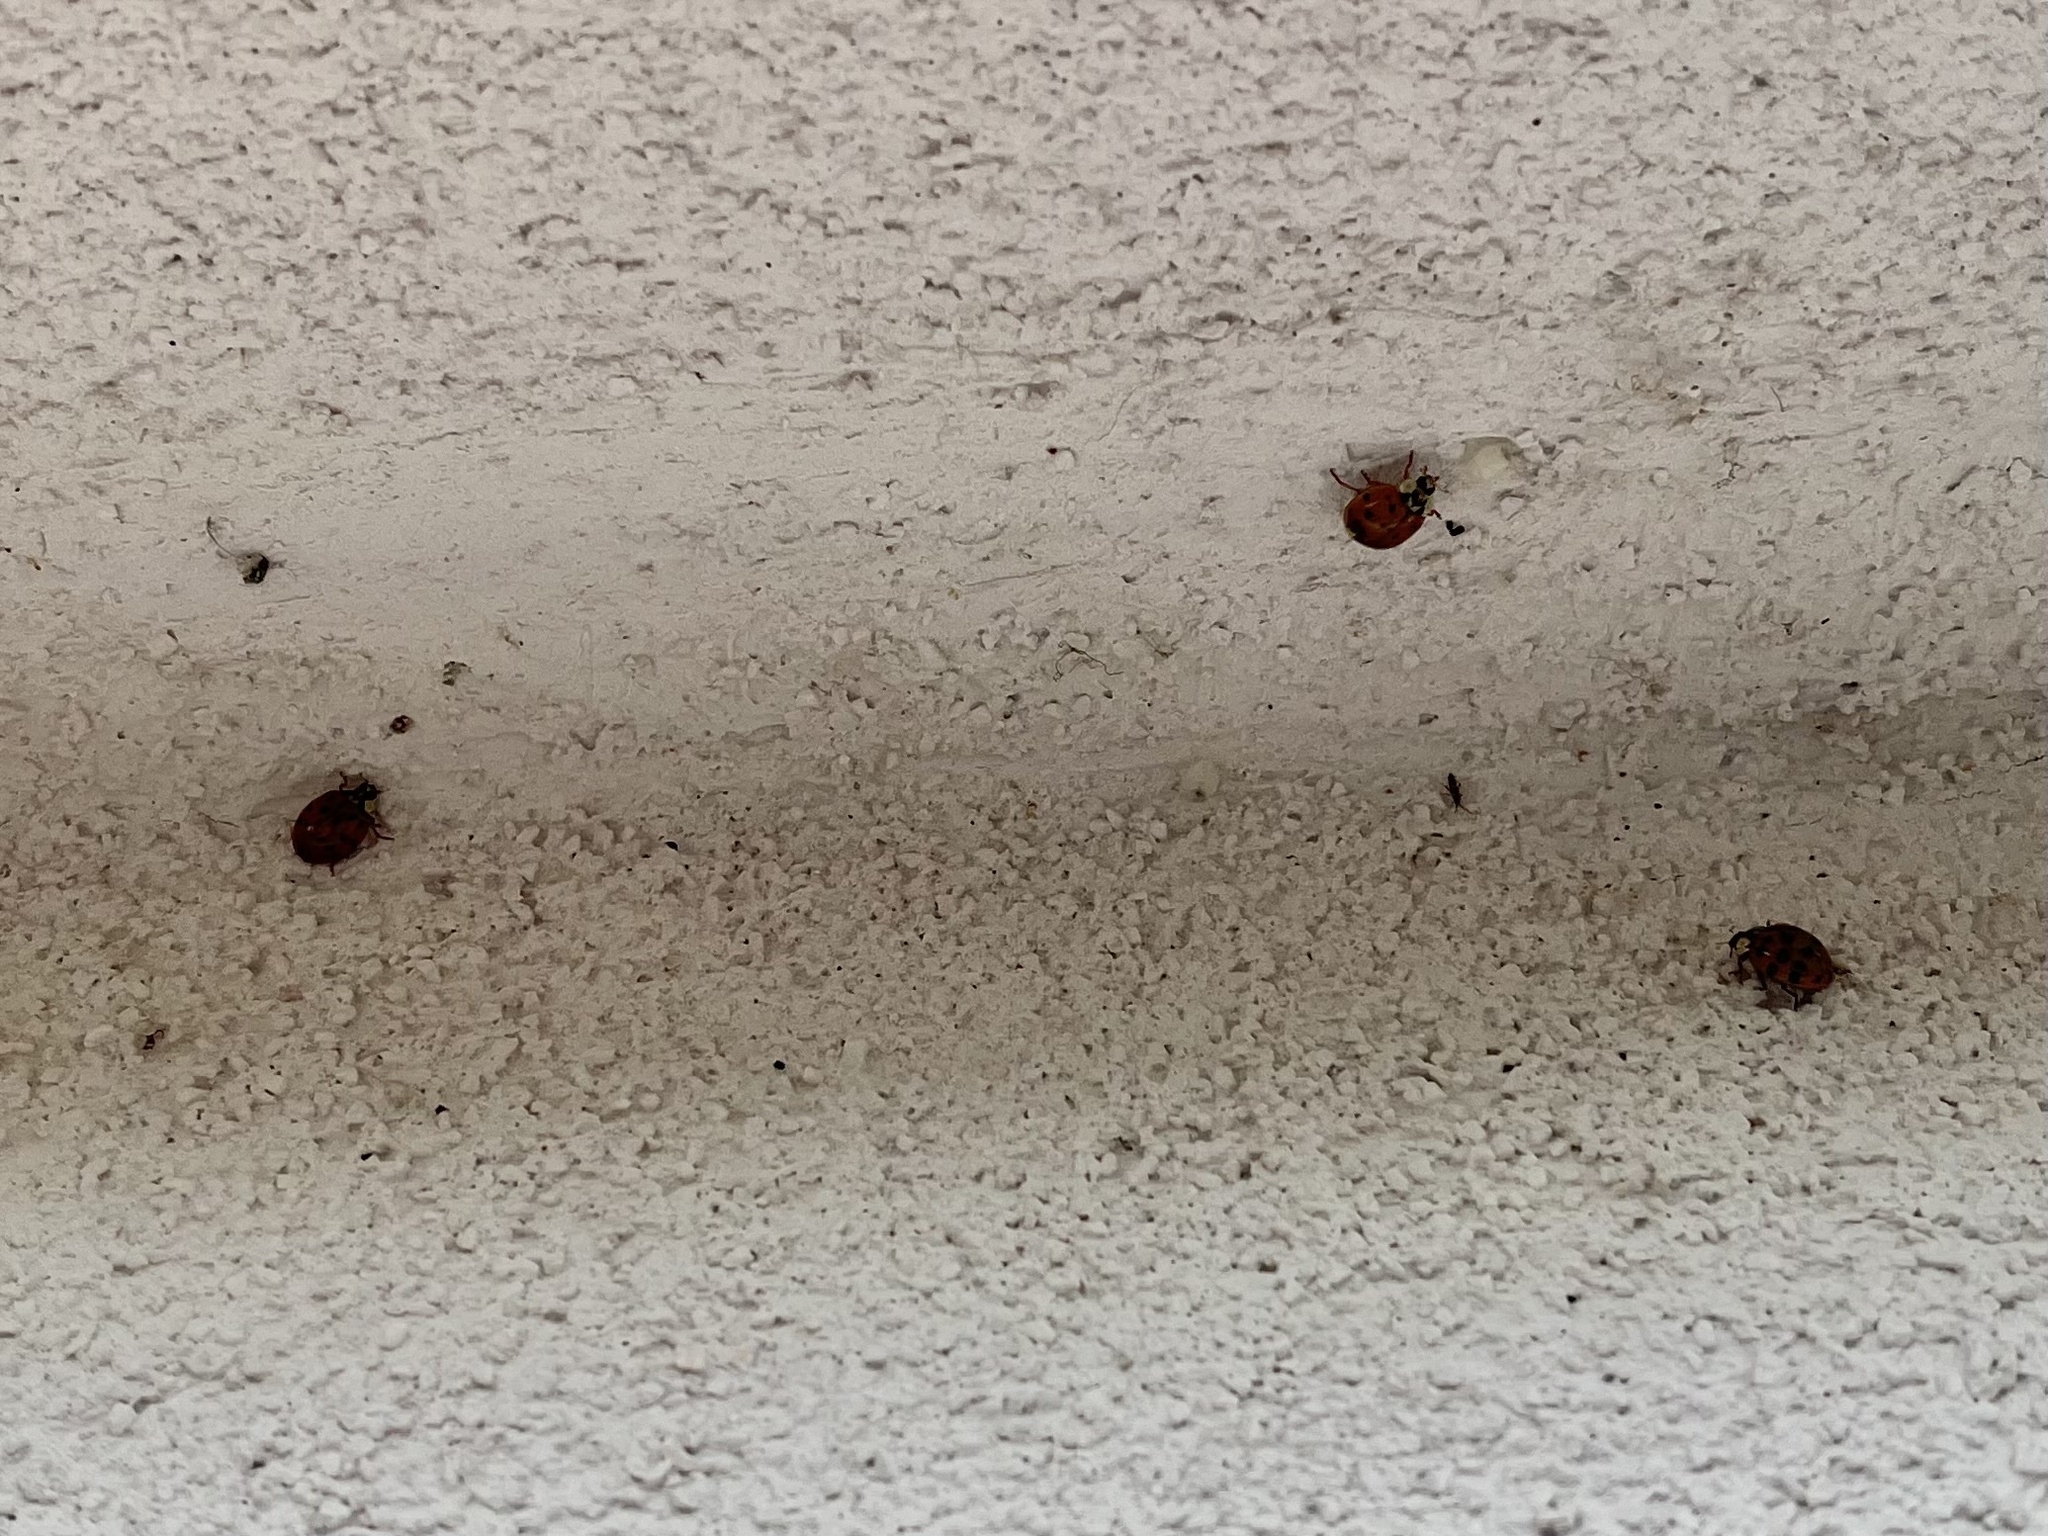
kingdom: Animalia
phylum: Arthropoda
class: Insecta
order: Coleoptera
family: Coccinellidae
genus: Harmonia
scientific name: Harmonia axyridis
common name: Harlequin ladybird
